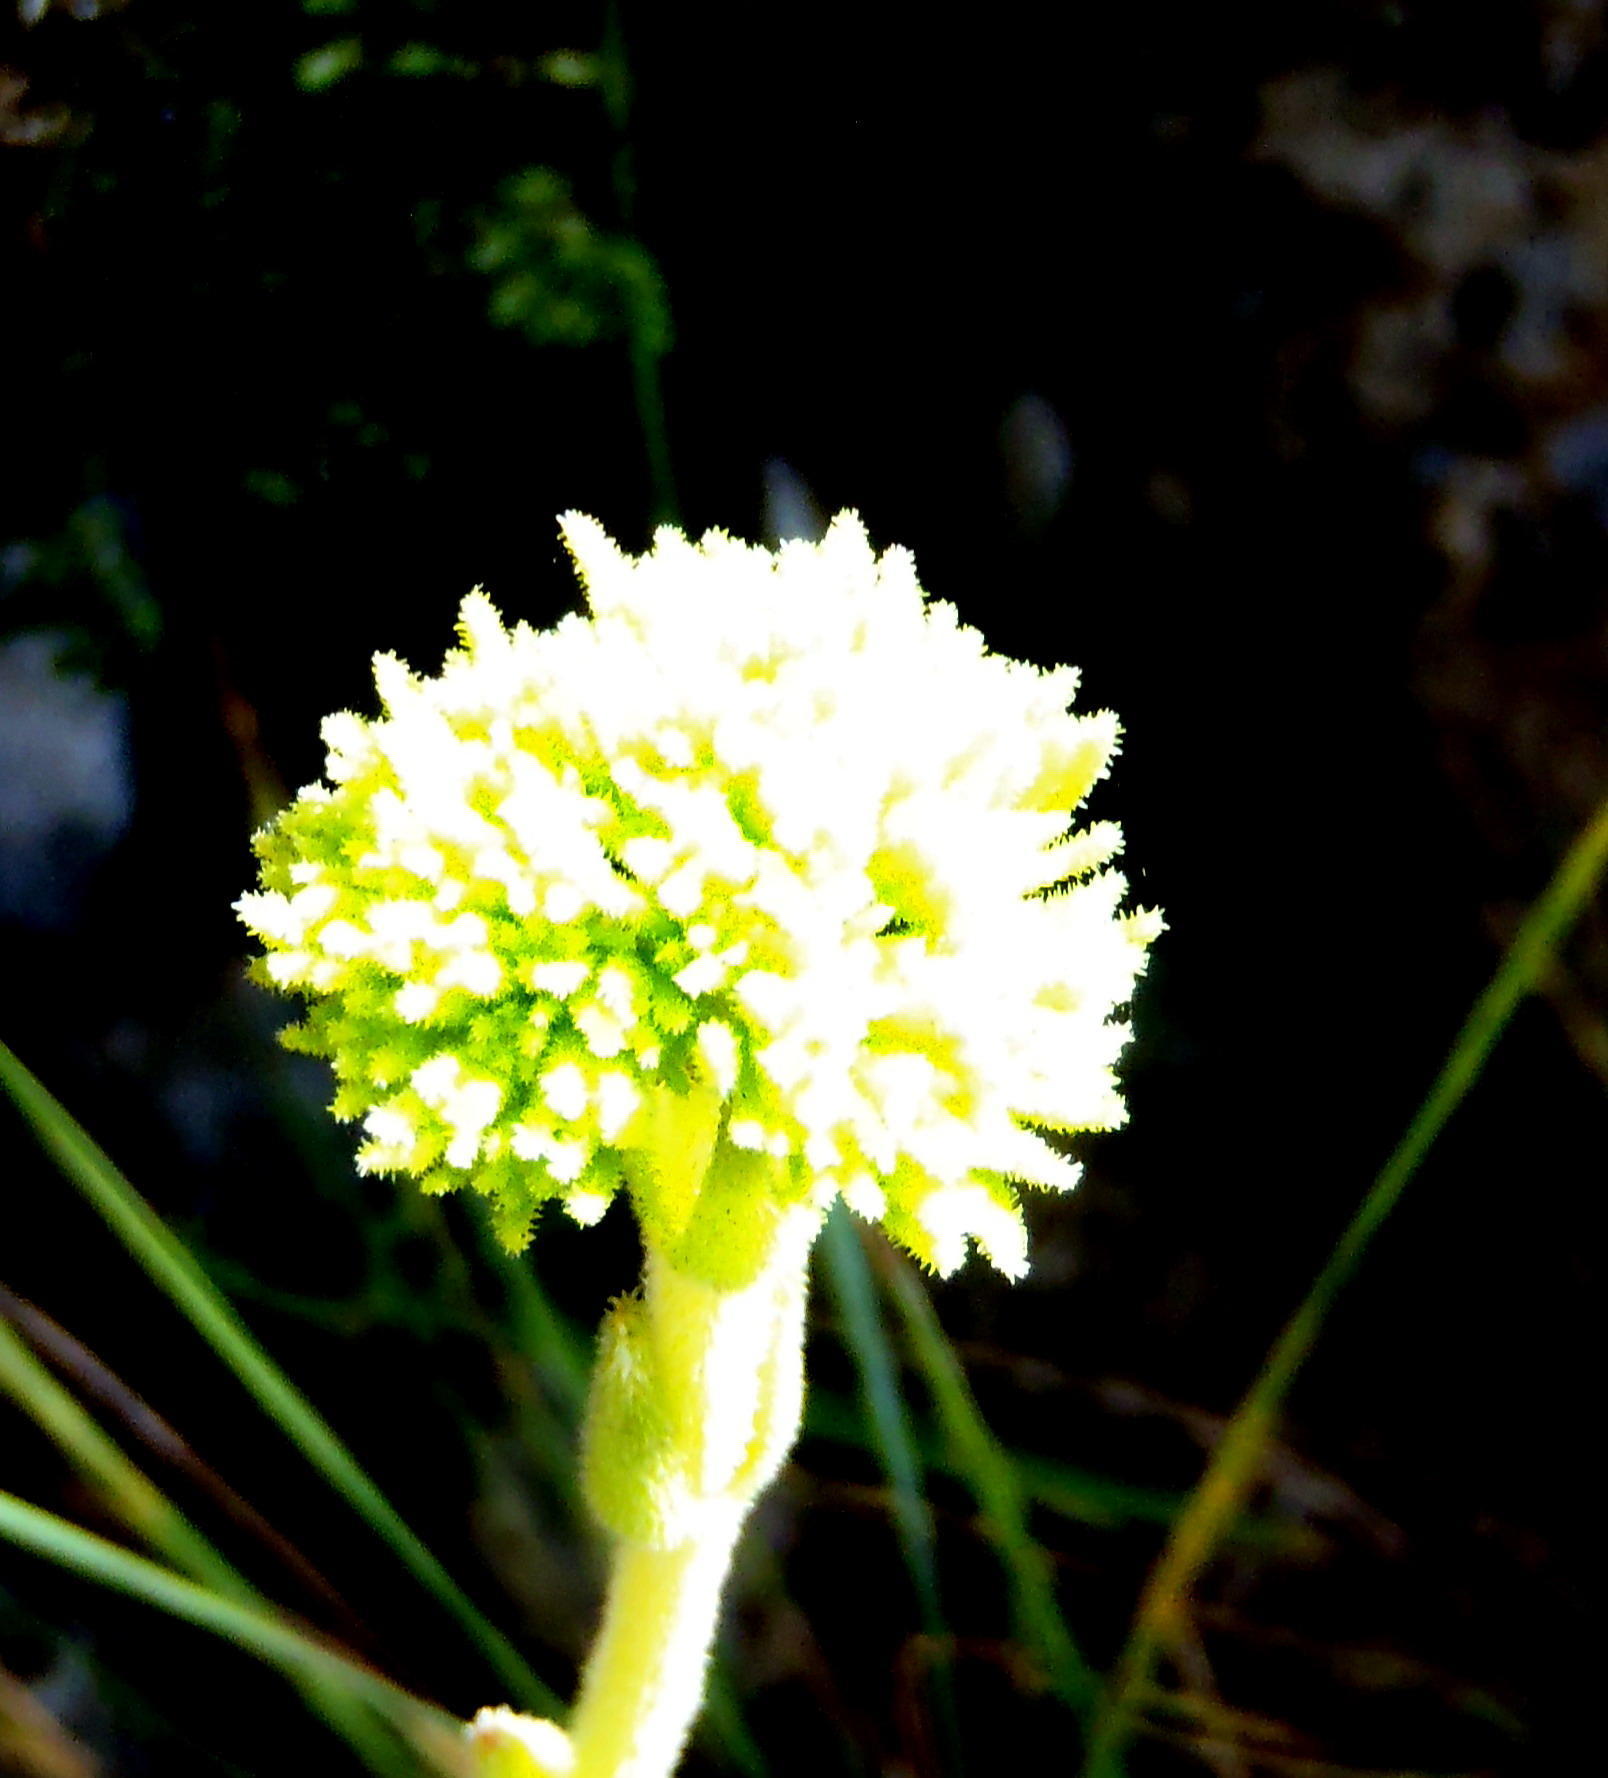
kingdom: Plantae
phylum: Tracheophyta
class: Magnoliopsida
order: Saxifragales
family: Crassulaceae
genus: Crassula
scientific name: Crassula mesembryanthemoides
